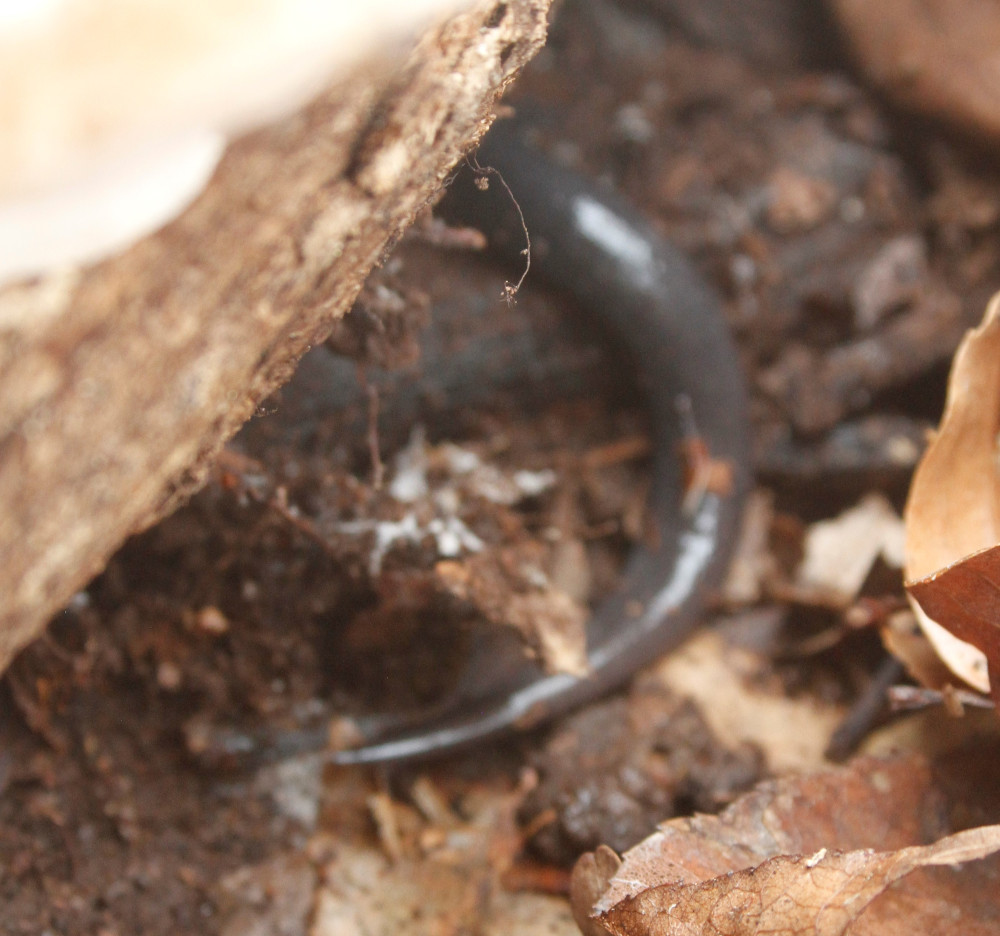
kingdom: Animalia
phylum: Chordata
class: Amphibia
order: Caudata
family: Plethodontidae
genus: Plethodon
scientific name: Plethodon cylindraceus
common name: White-spotted slimy salamander
